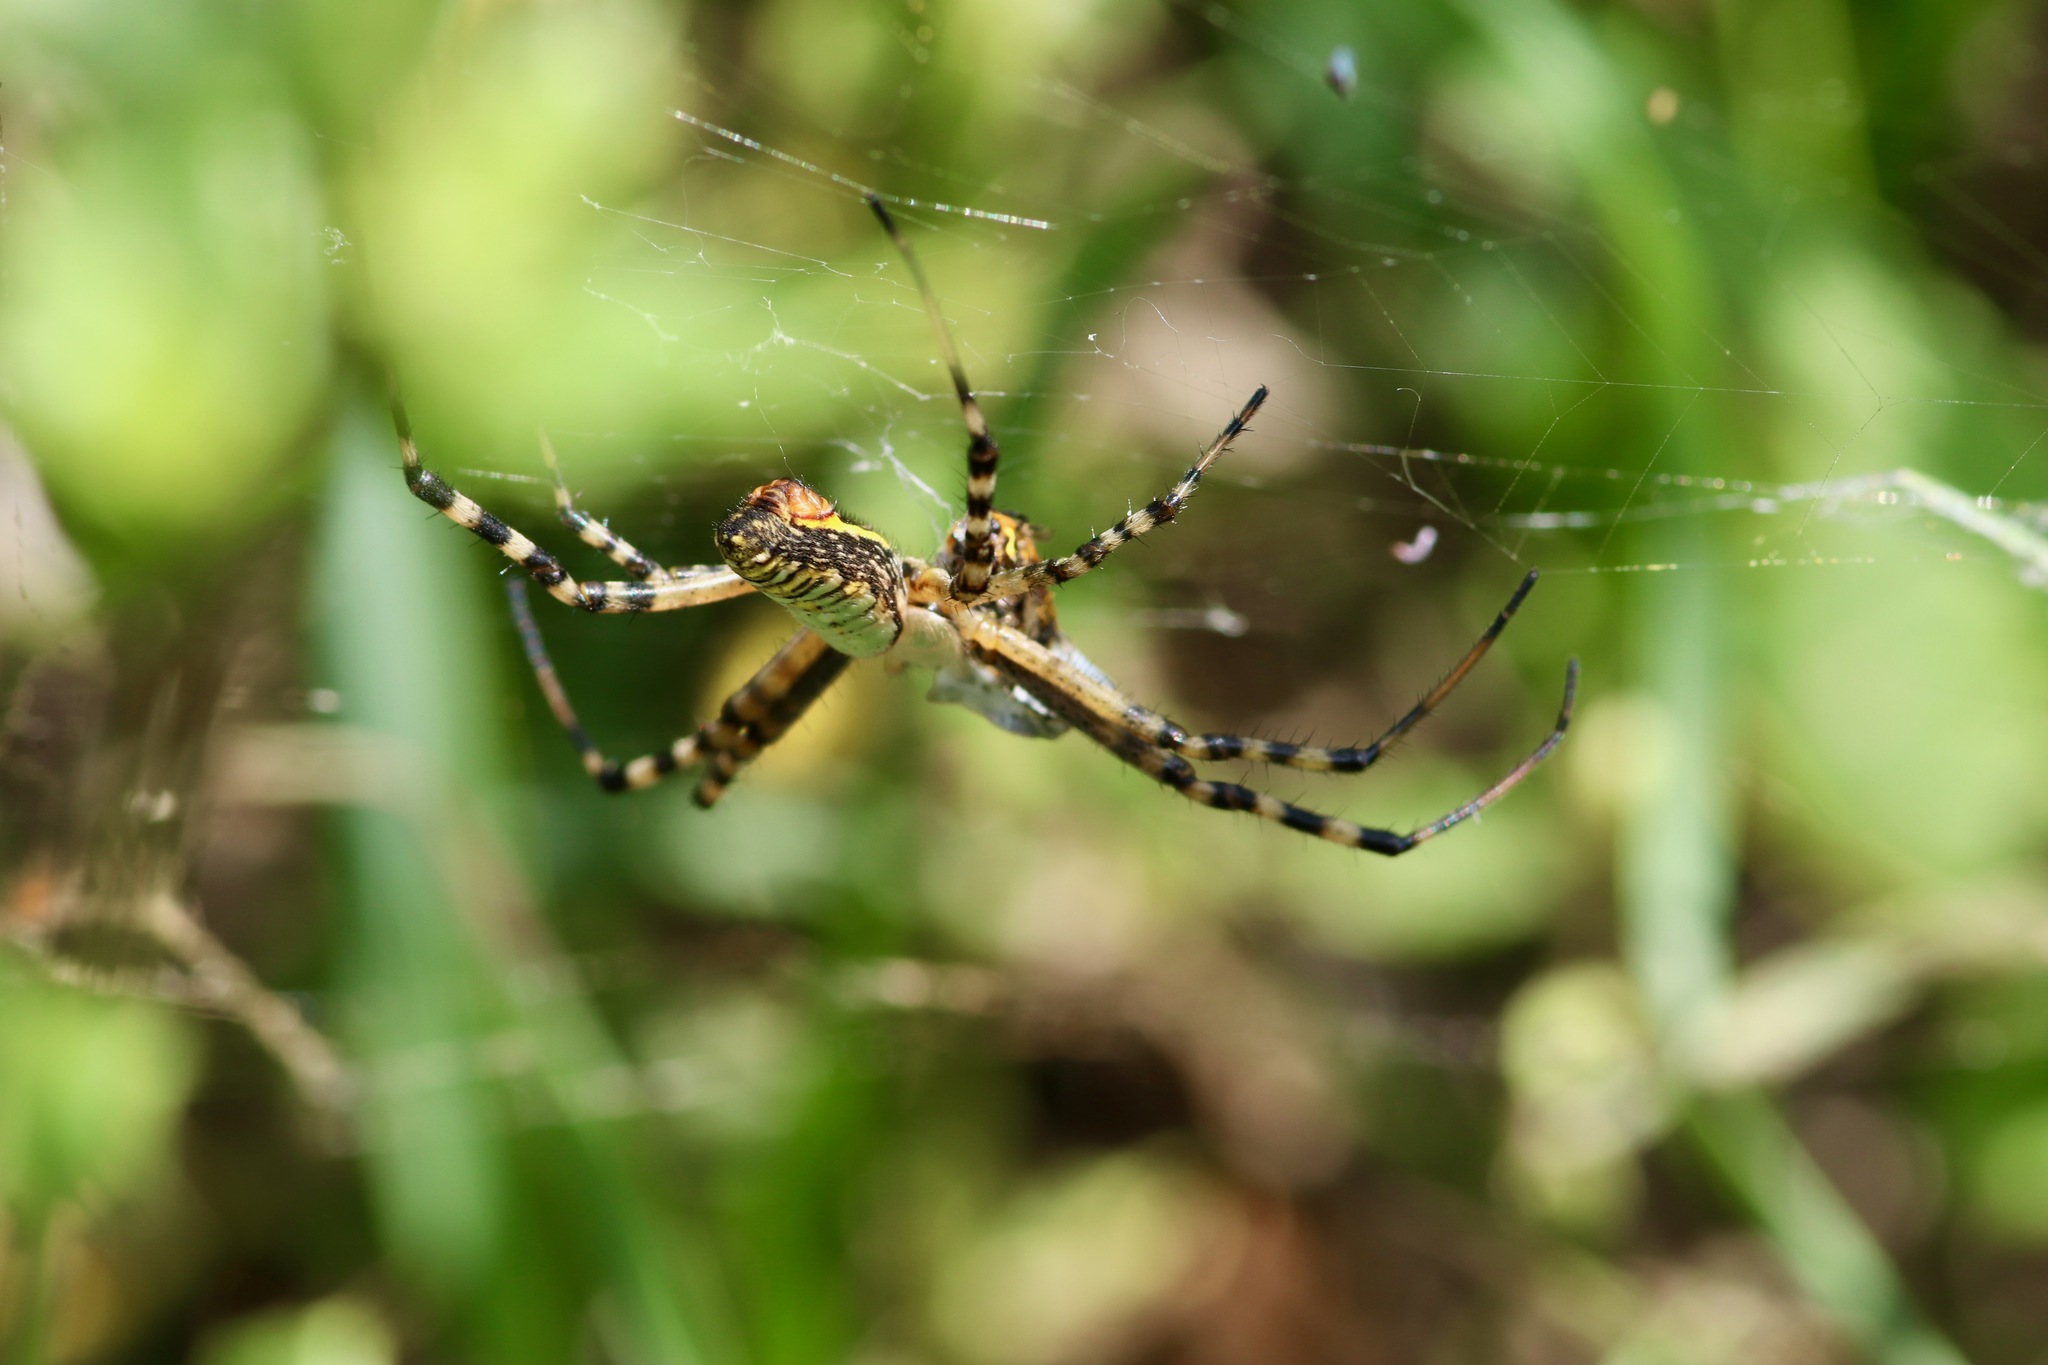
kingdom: Animalia
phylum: Arthropoda
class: Arachnida
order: Araneae
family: Araneidae
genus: Argiope
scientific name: Argiope trifasciata
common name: Banded garden spider
